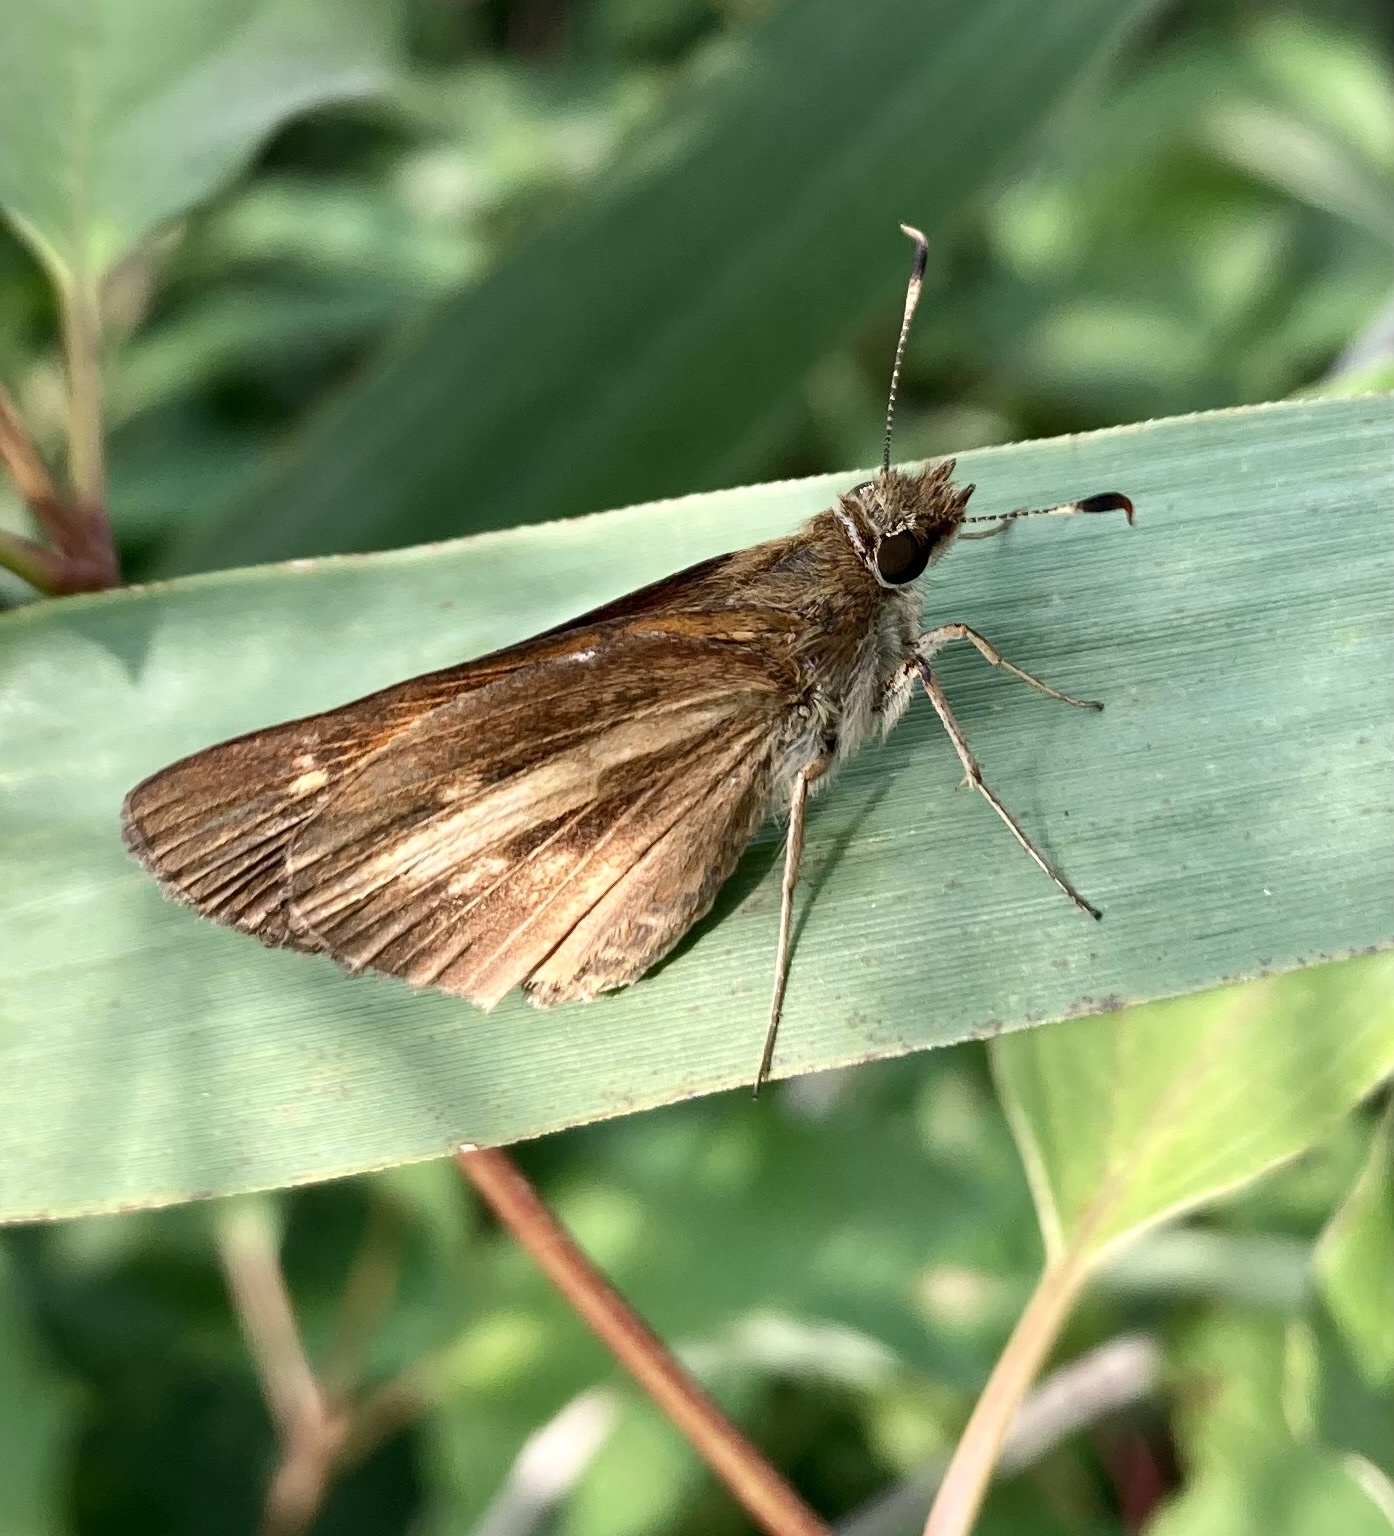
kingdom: Animalia
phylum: Arthropoda
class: Insecta
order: Lepidoptera
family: Hesperiidae
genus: Poanes
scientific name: Poanes viator
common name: Broad-winged skipper
